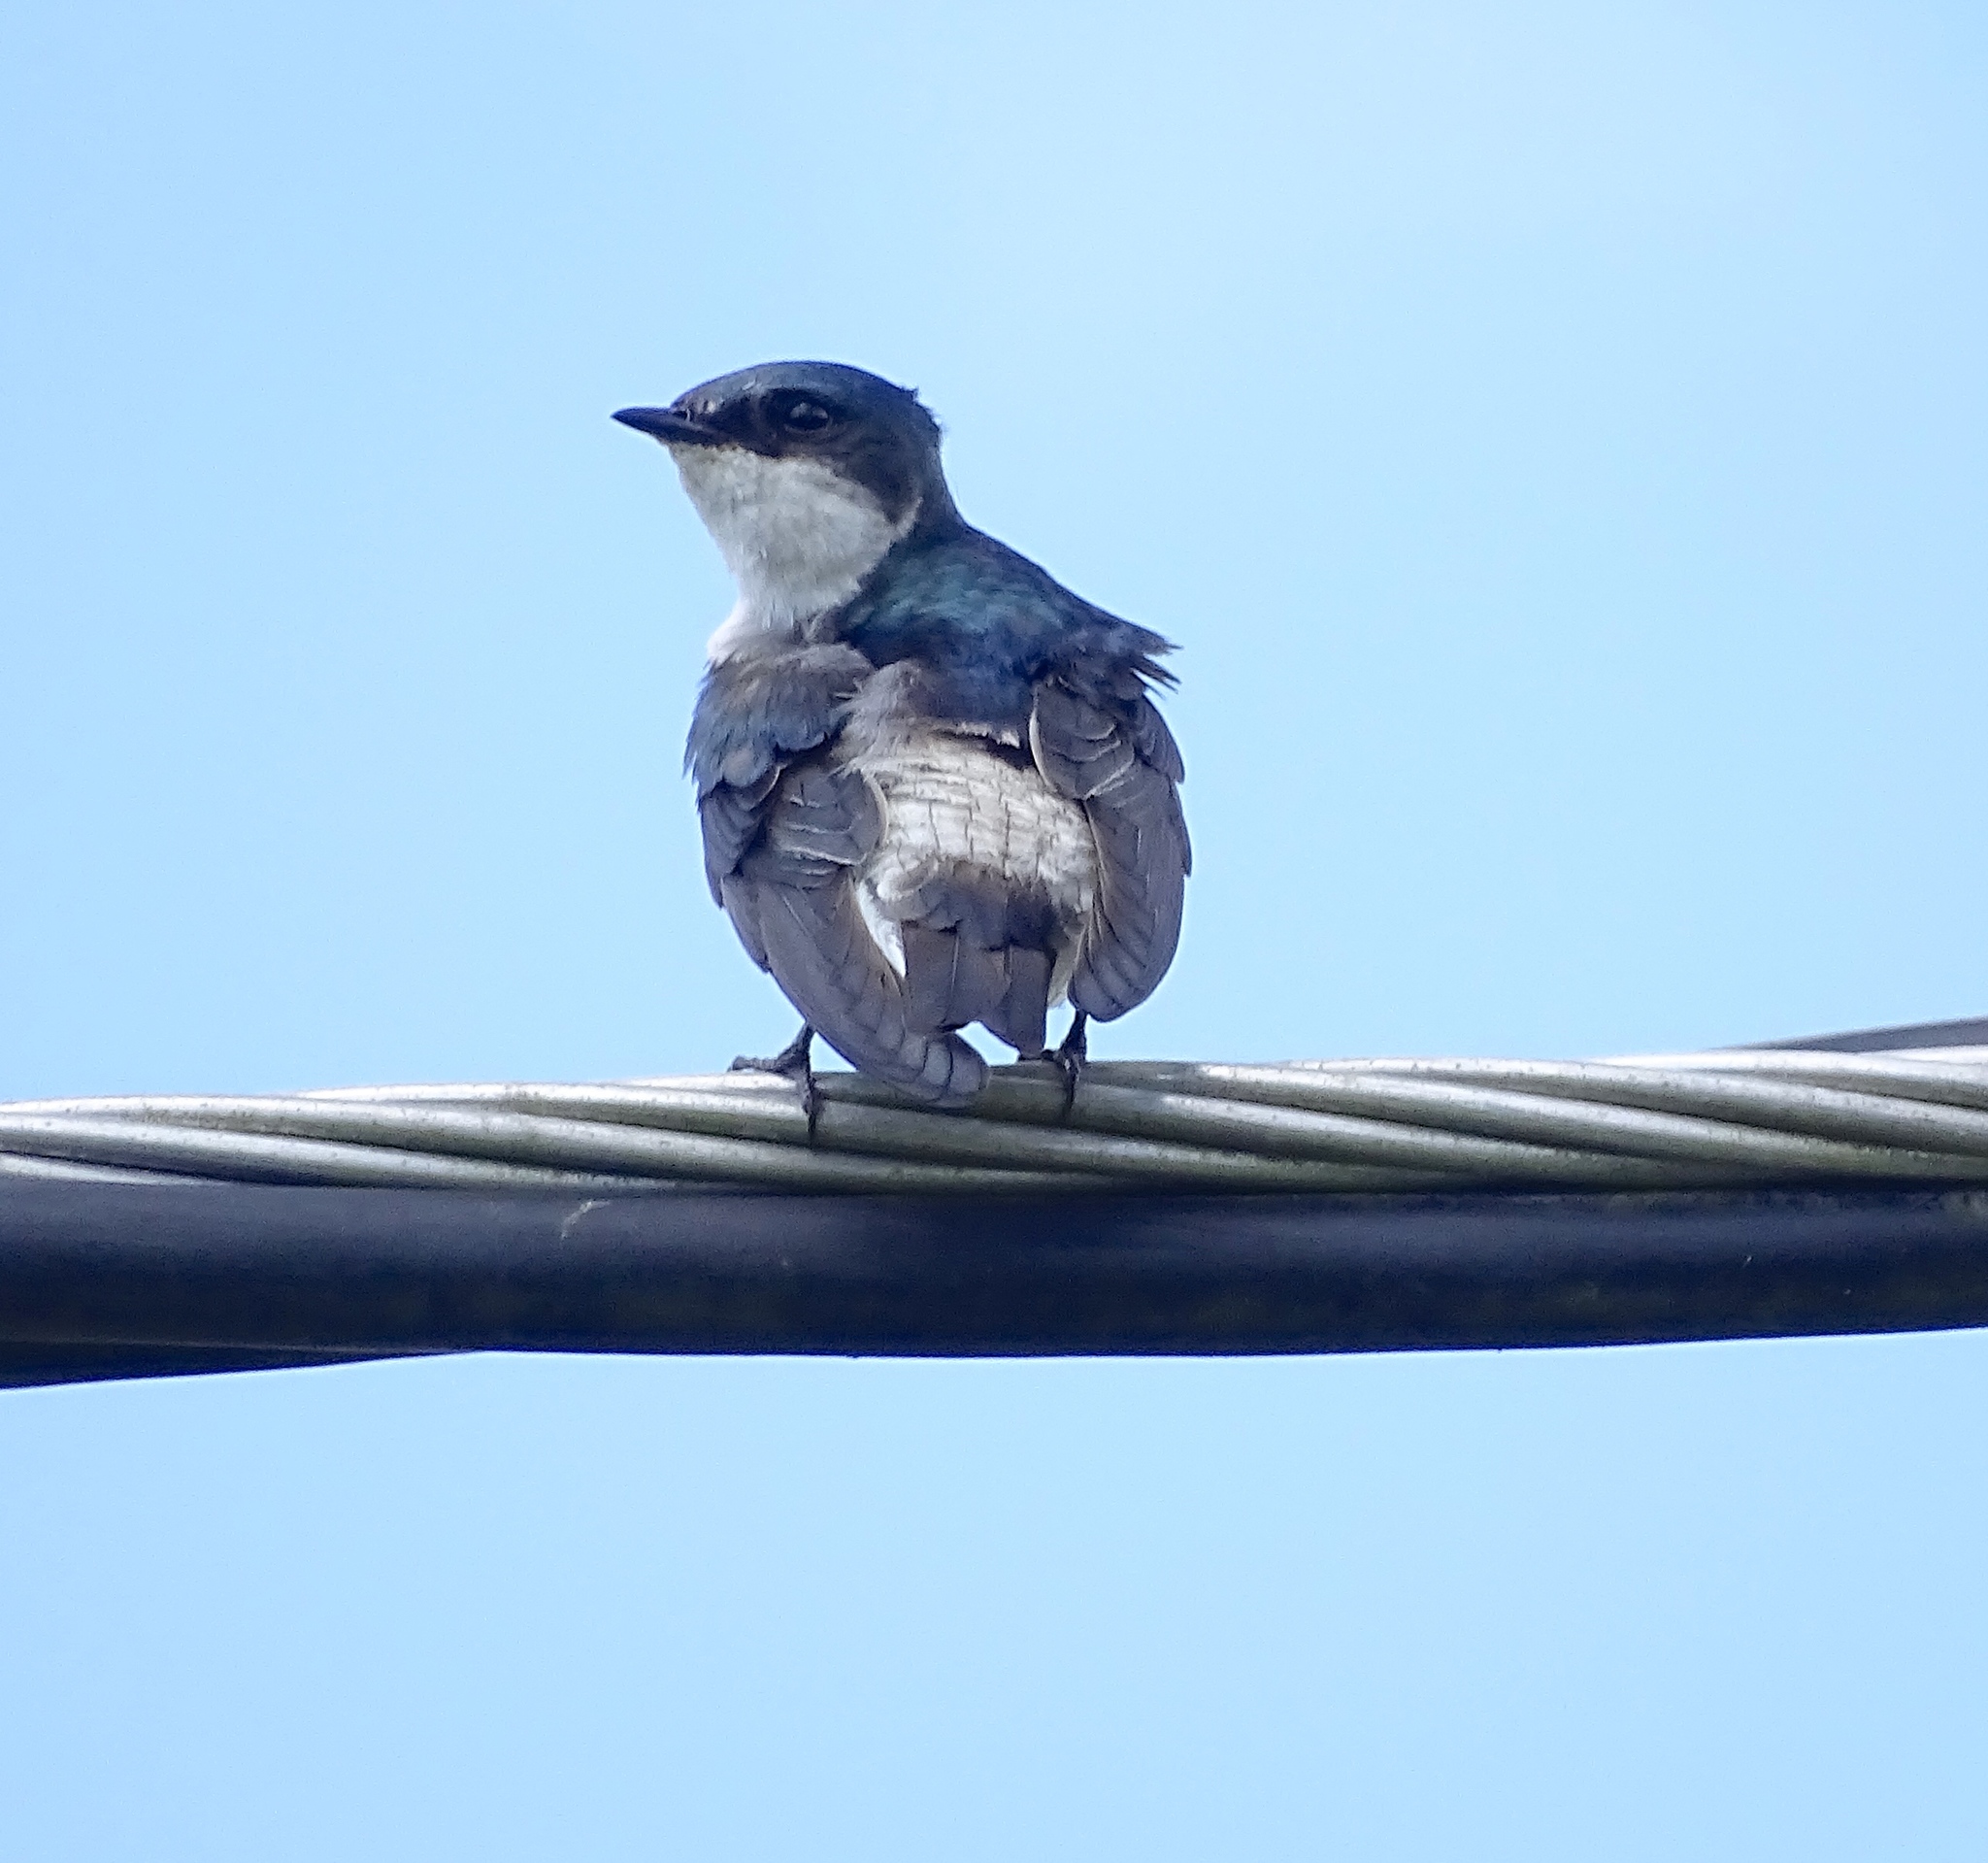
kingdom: Animalia
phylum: Chordata
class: Aves
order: Passeriformes
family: Hirundinidae
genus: Tachycineta
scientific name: Tachycineta albilinea
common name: Mangrove swallow
